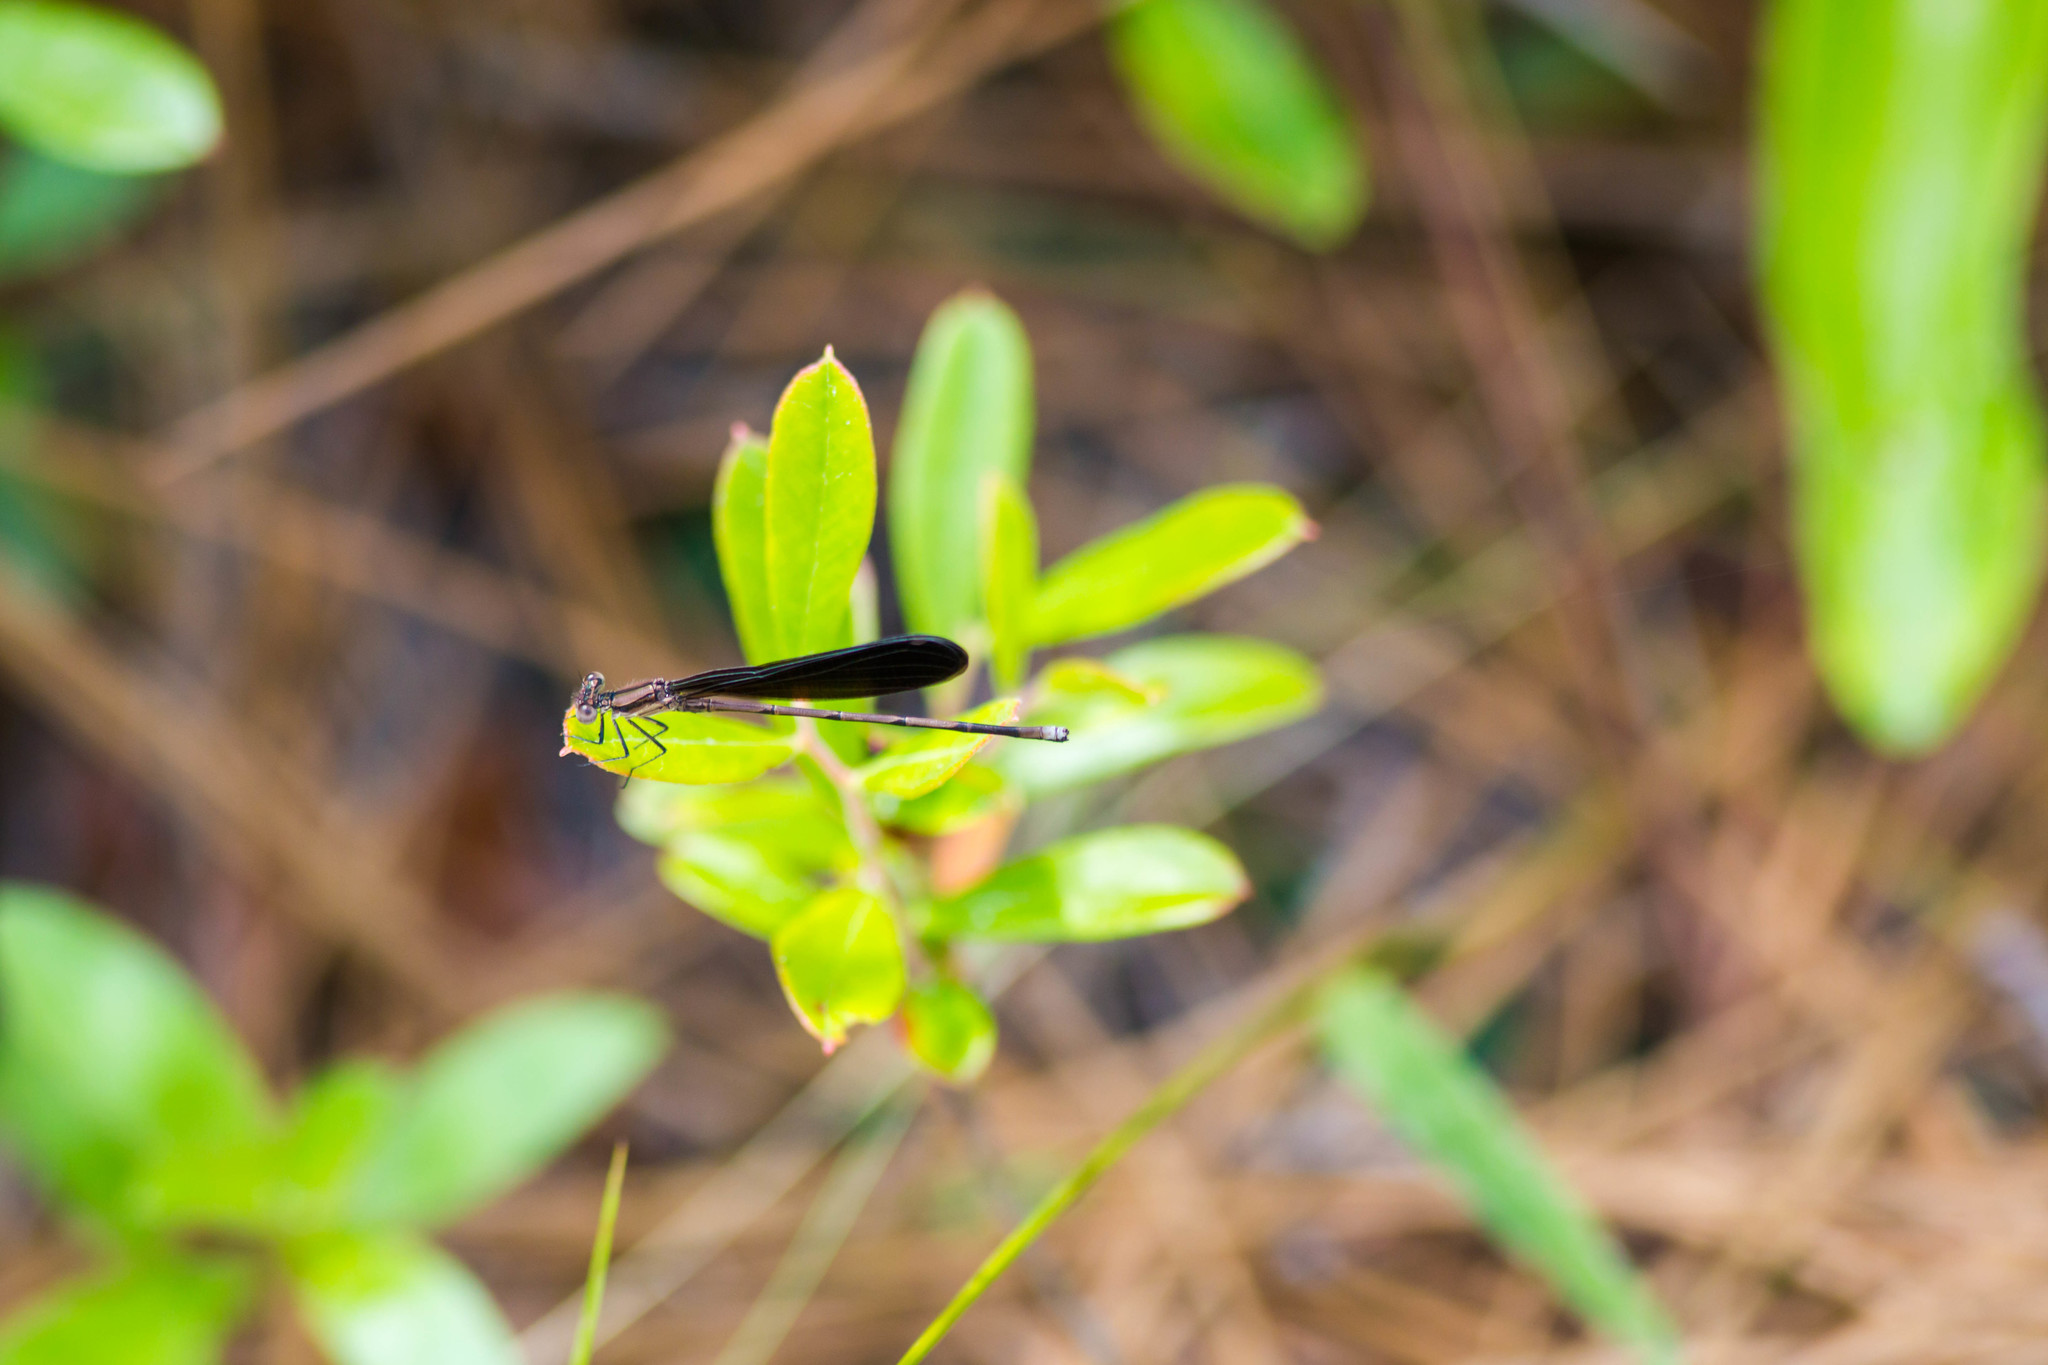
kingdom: Animalia
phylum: Arthropoda
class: Insecta
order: Odonata
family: Coenagrionidae
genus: Argia
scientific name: Argia fumipennis
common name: Variable dancer
